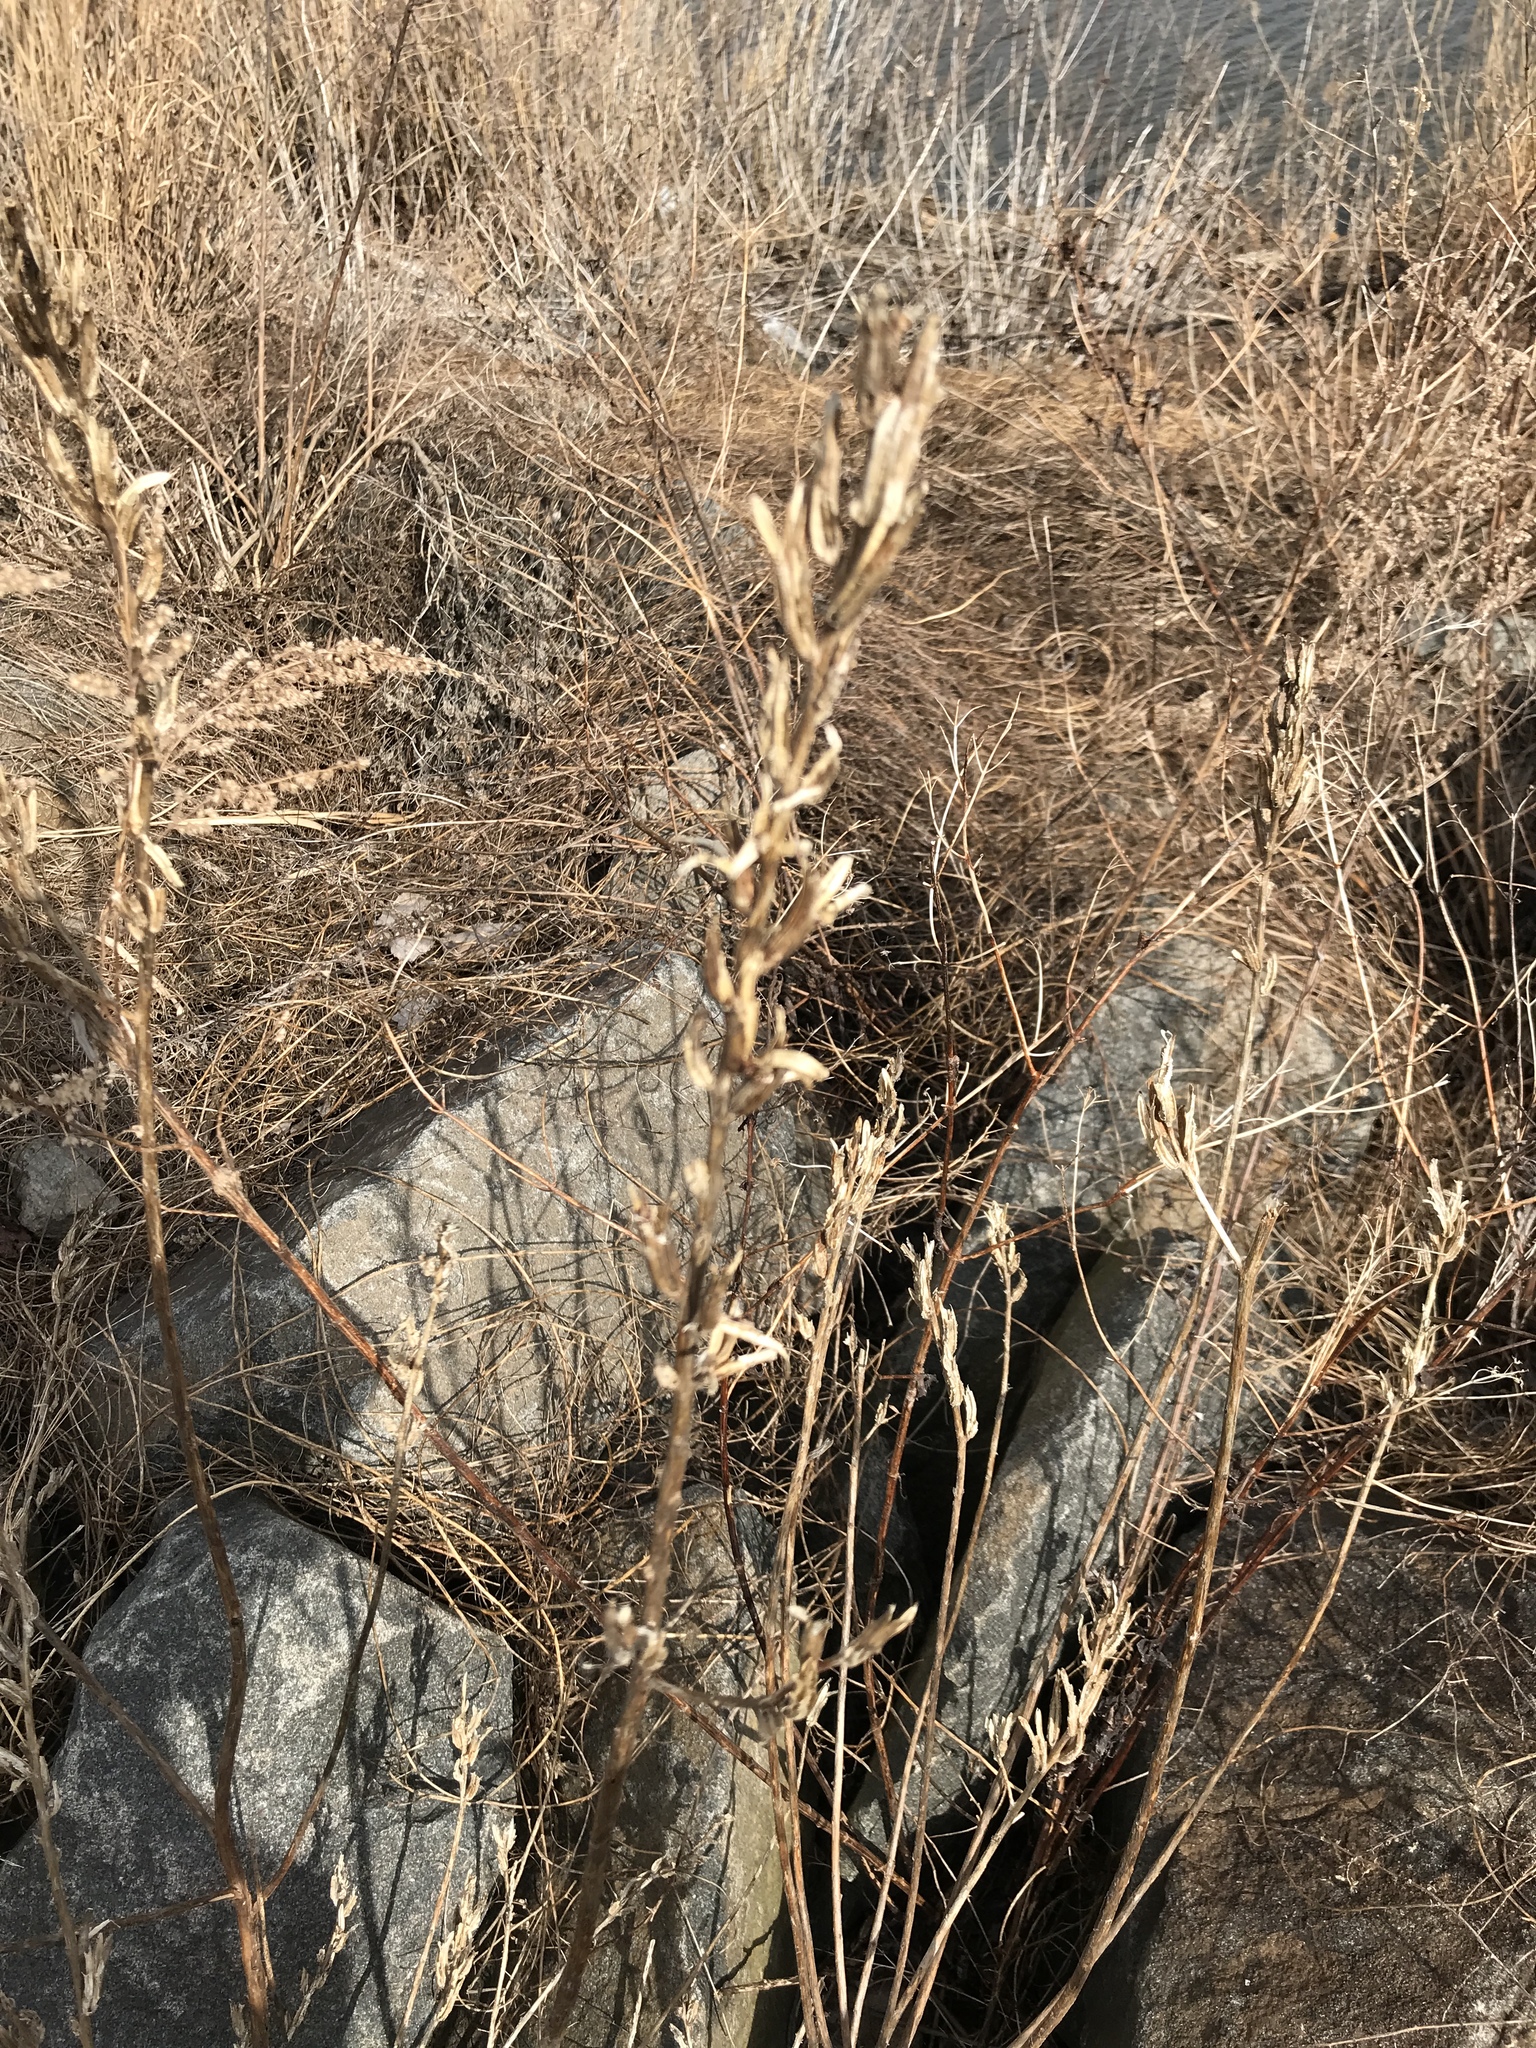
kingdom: Plantae
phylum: Tracheophyta
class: Magnoliopsida
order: Myrtales
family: Onagraceae
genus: Oenothera
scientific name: Oenothera biennis
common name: Common evening-primrose
